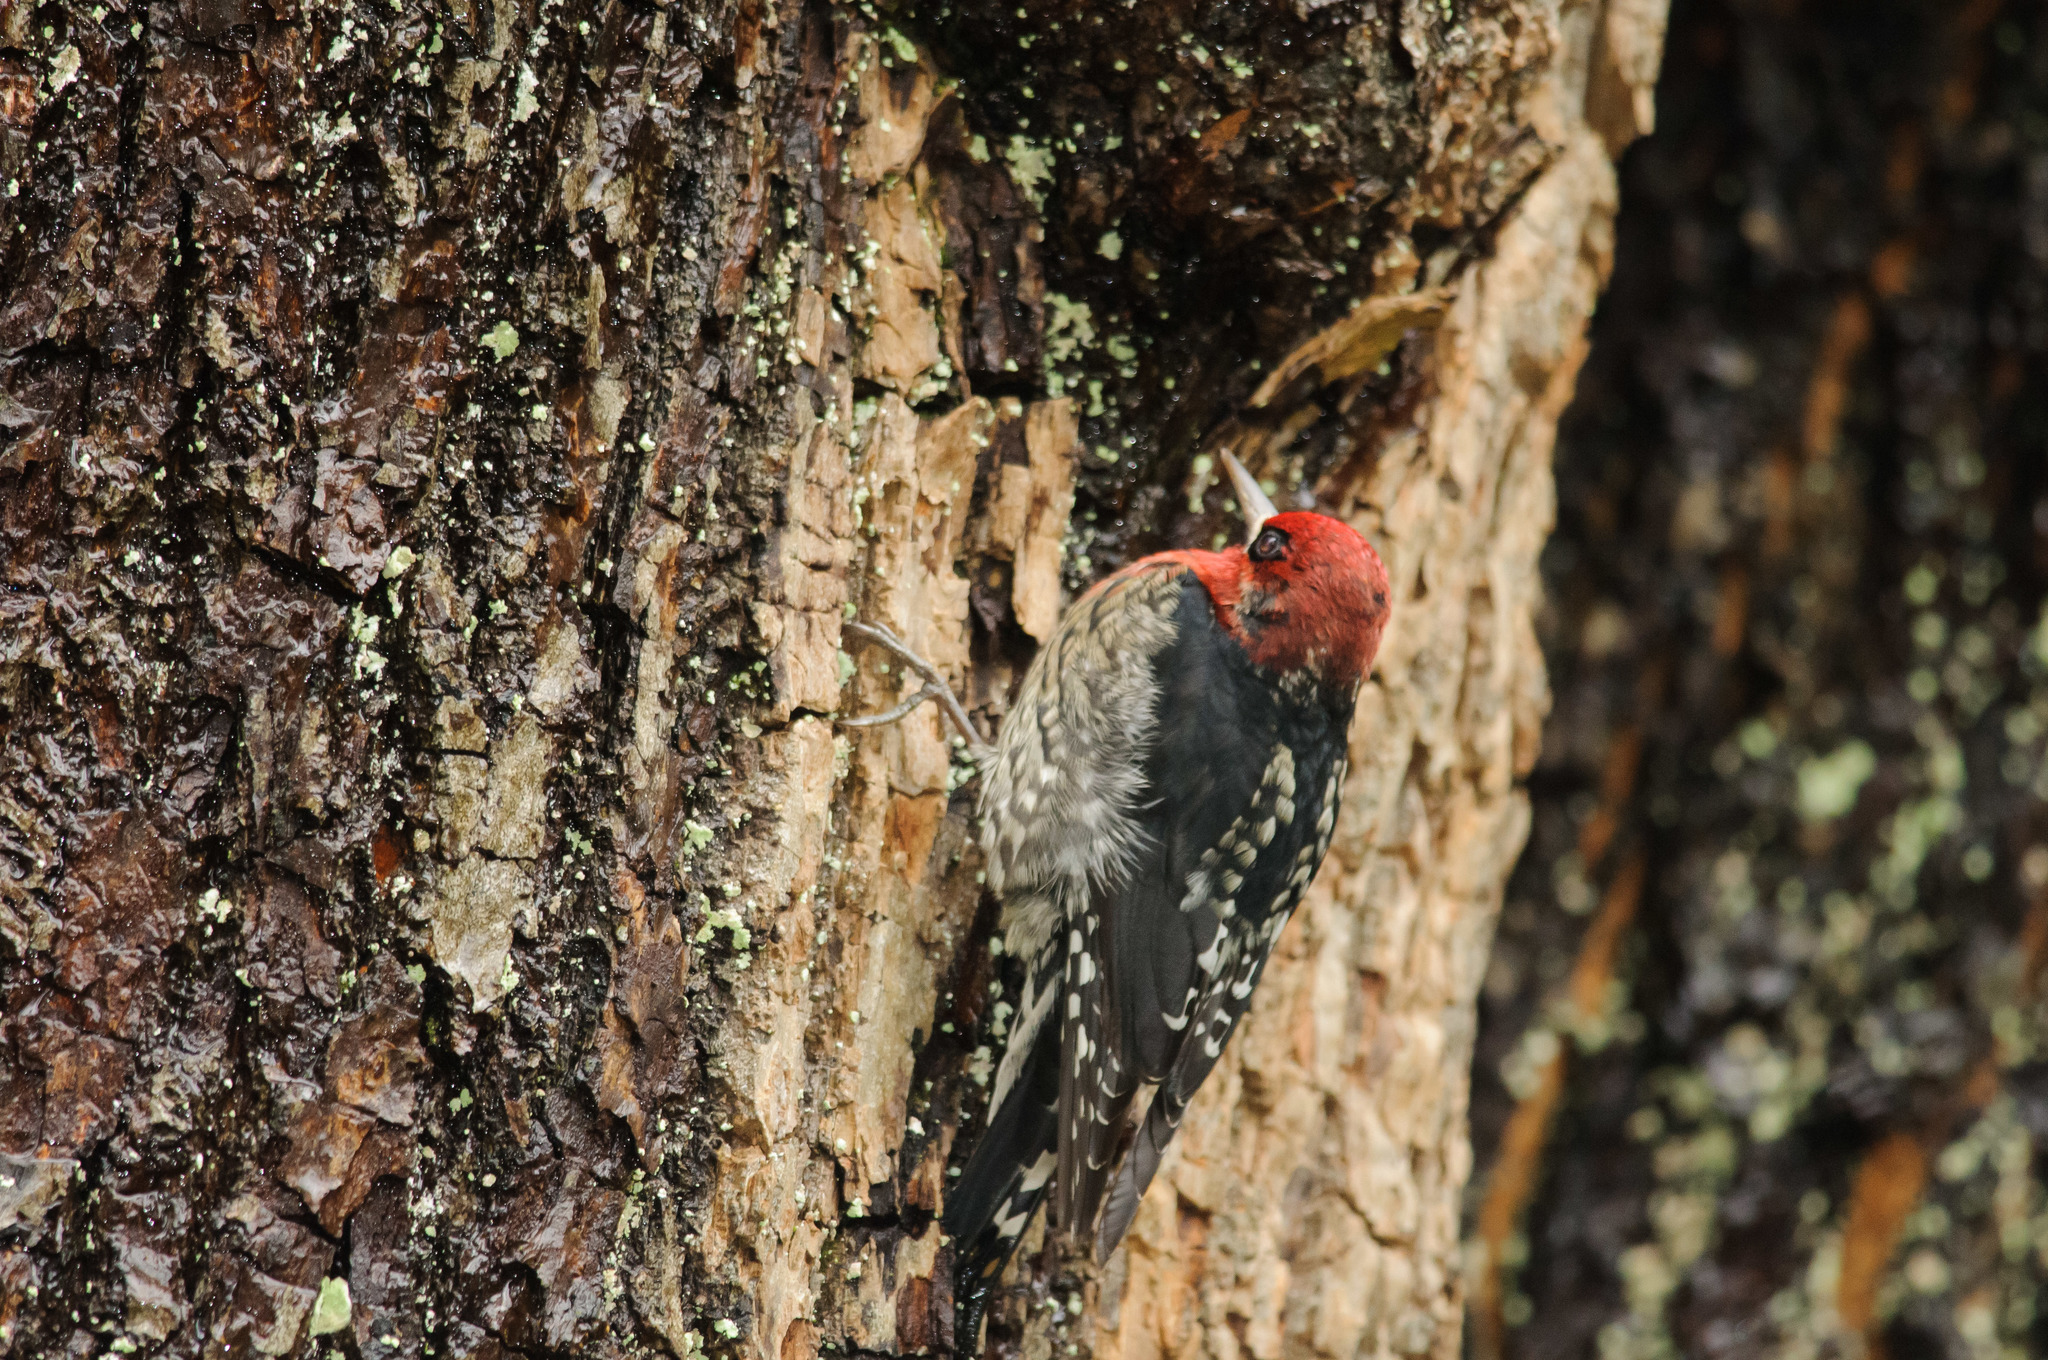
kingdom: Animalia
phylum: Chordata
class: Aves
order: Piciformes
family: Picidae
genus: Sphyrapicus
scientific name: Sphyrapicus ruber
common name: Red-breasted sapsucker
